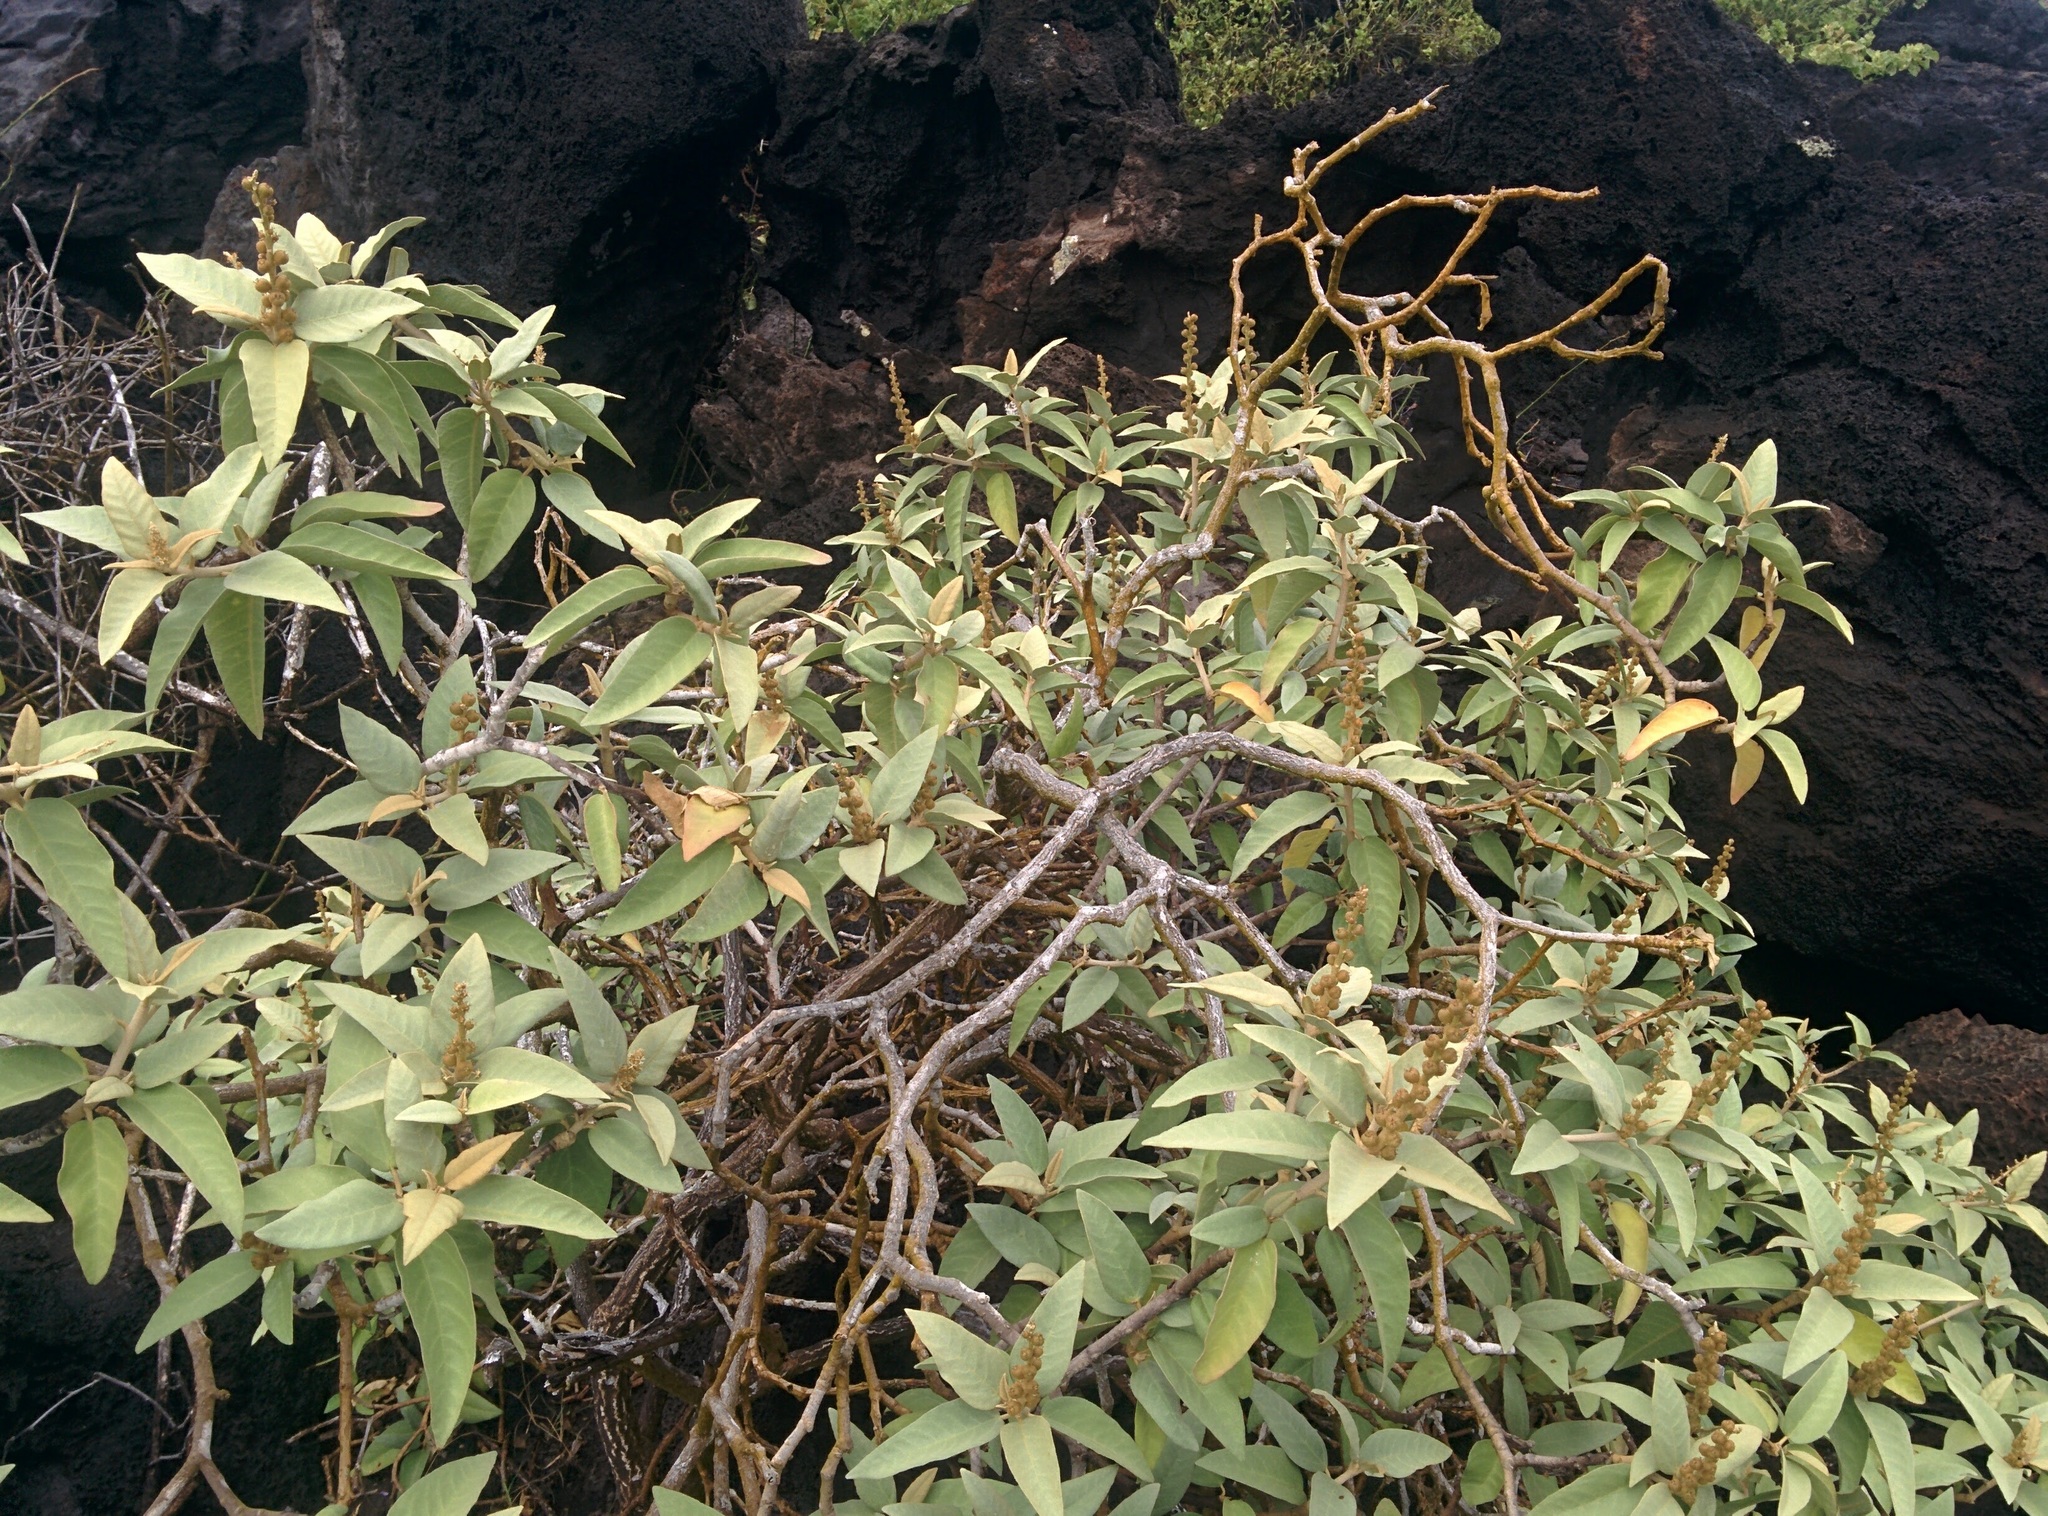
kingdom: Plantae
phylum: Tracheophyta
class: Magnoliopsida
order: Malpighiales
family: Euphorbiaceae
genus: Croton
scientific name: Croton scouleri
